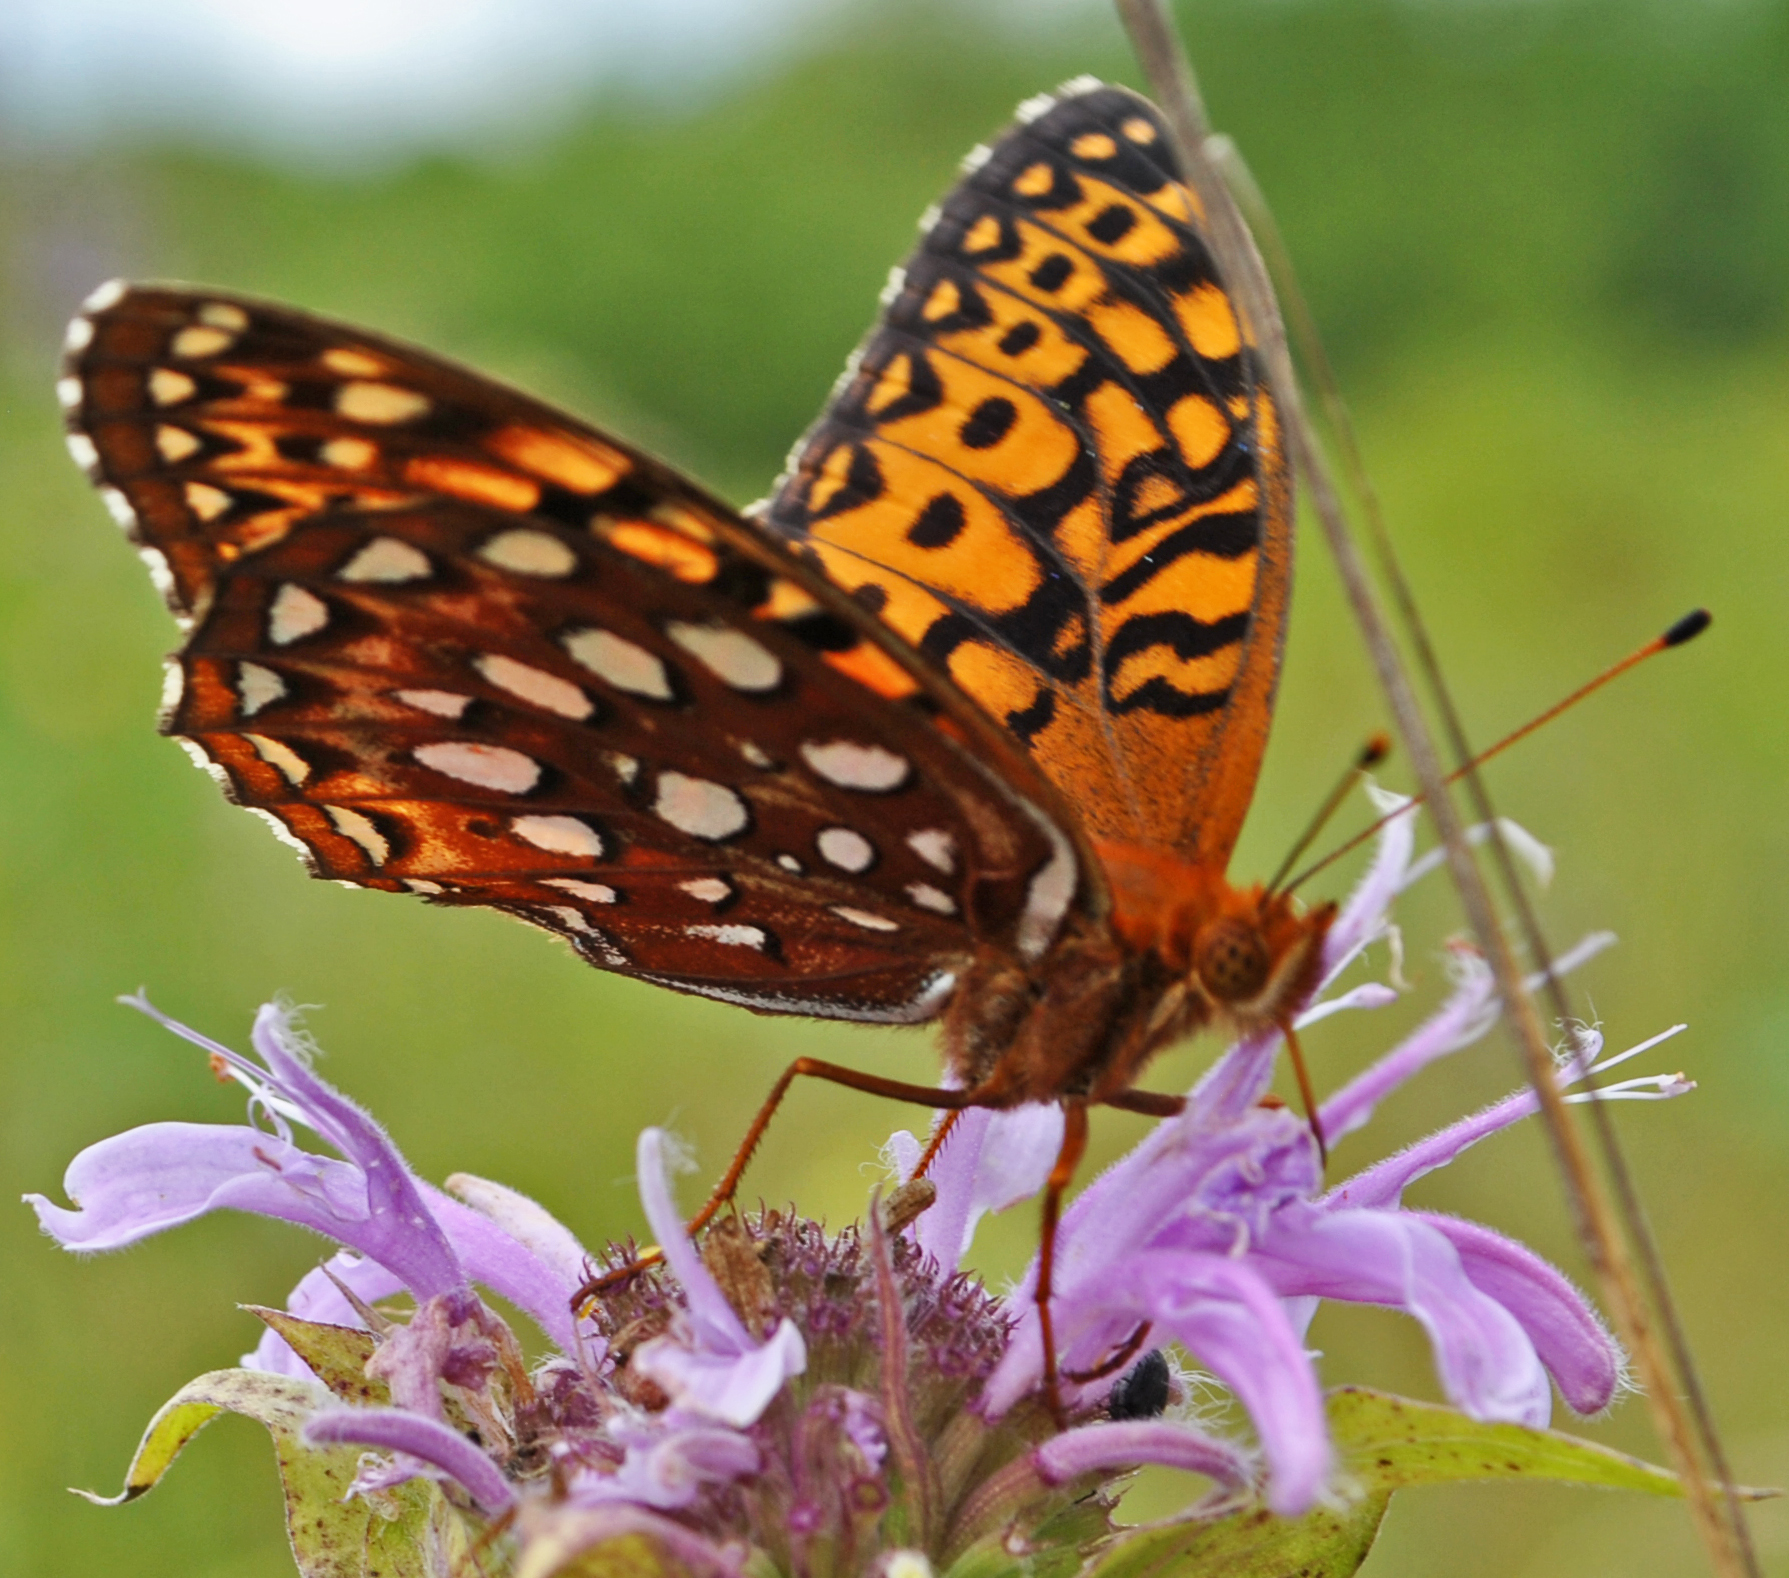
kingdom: Animalia
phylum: Arthropoda
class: Insecta
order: Lepidoptera
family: Nymphalidae
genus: Speyeria
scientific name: Speyeria aphrodite
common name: Aphrodite friitllary
